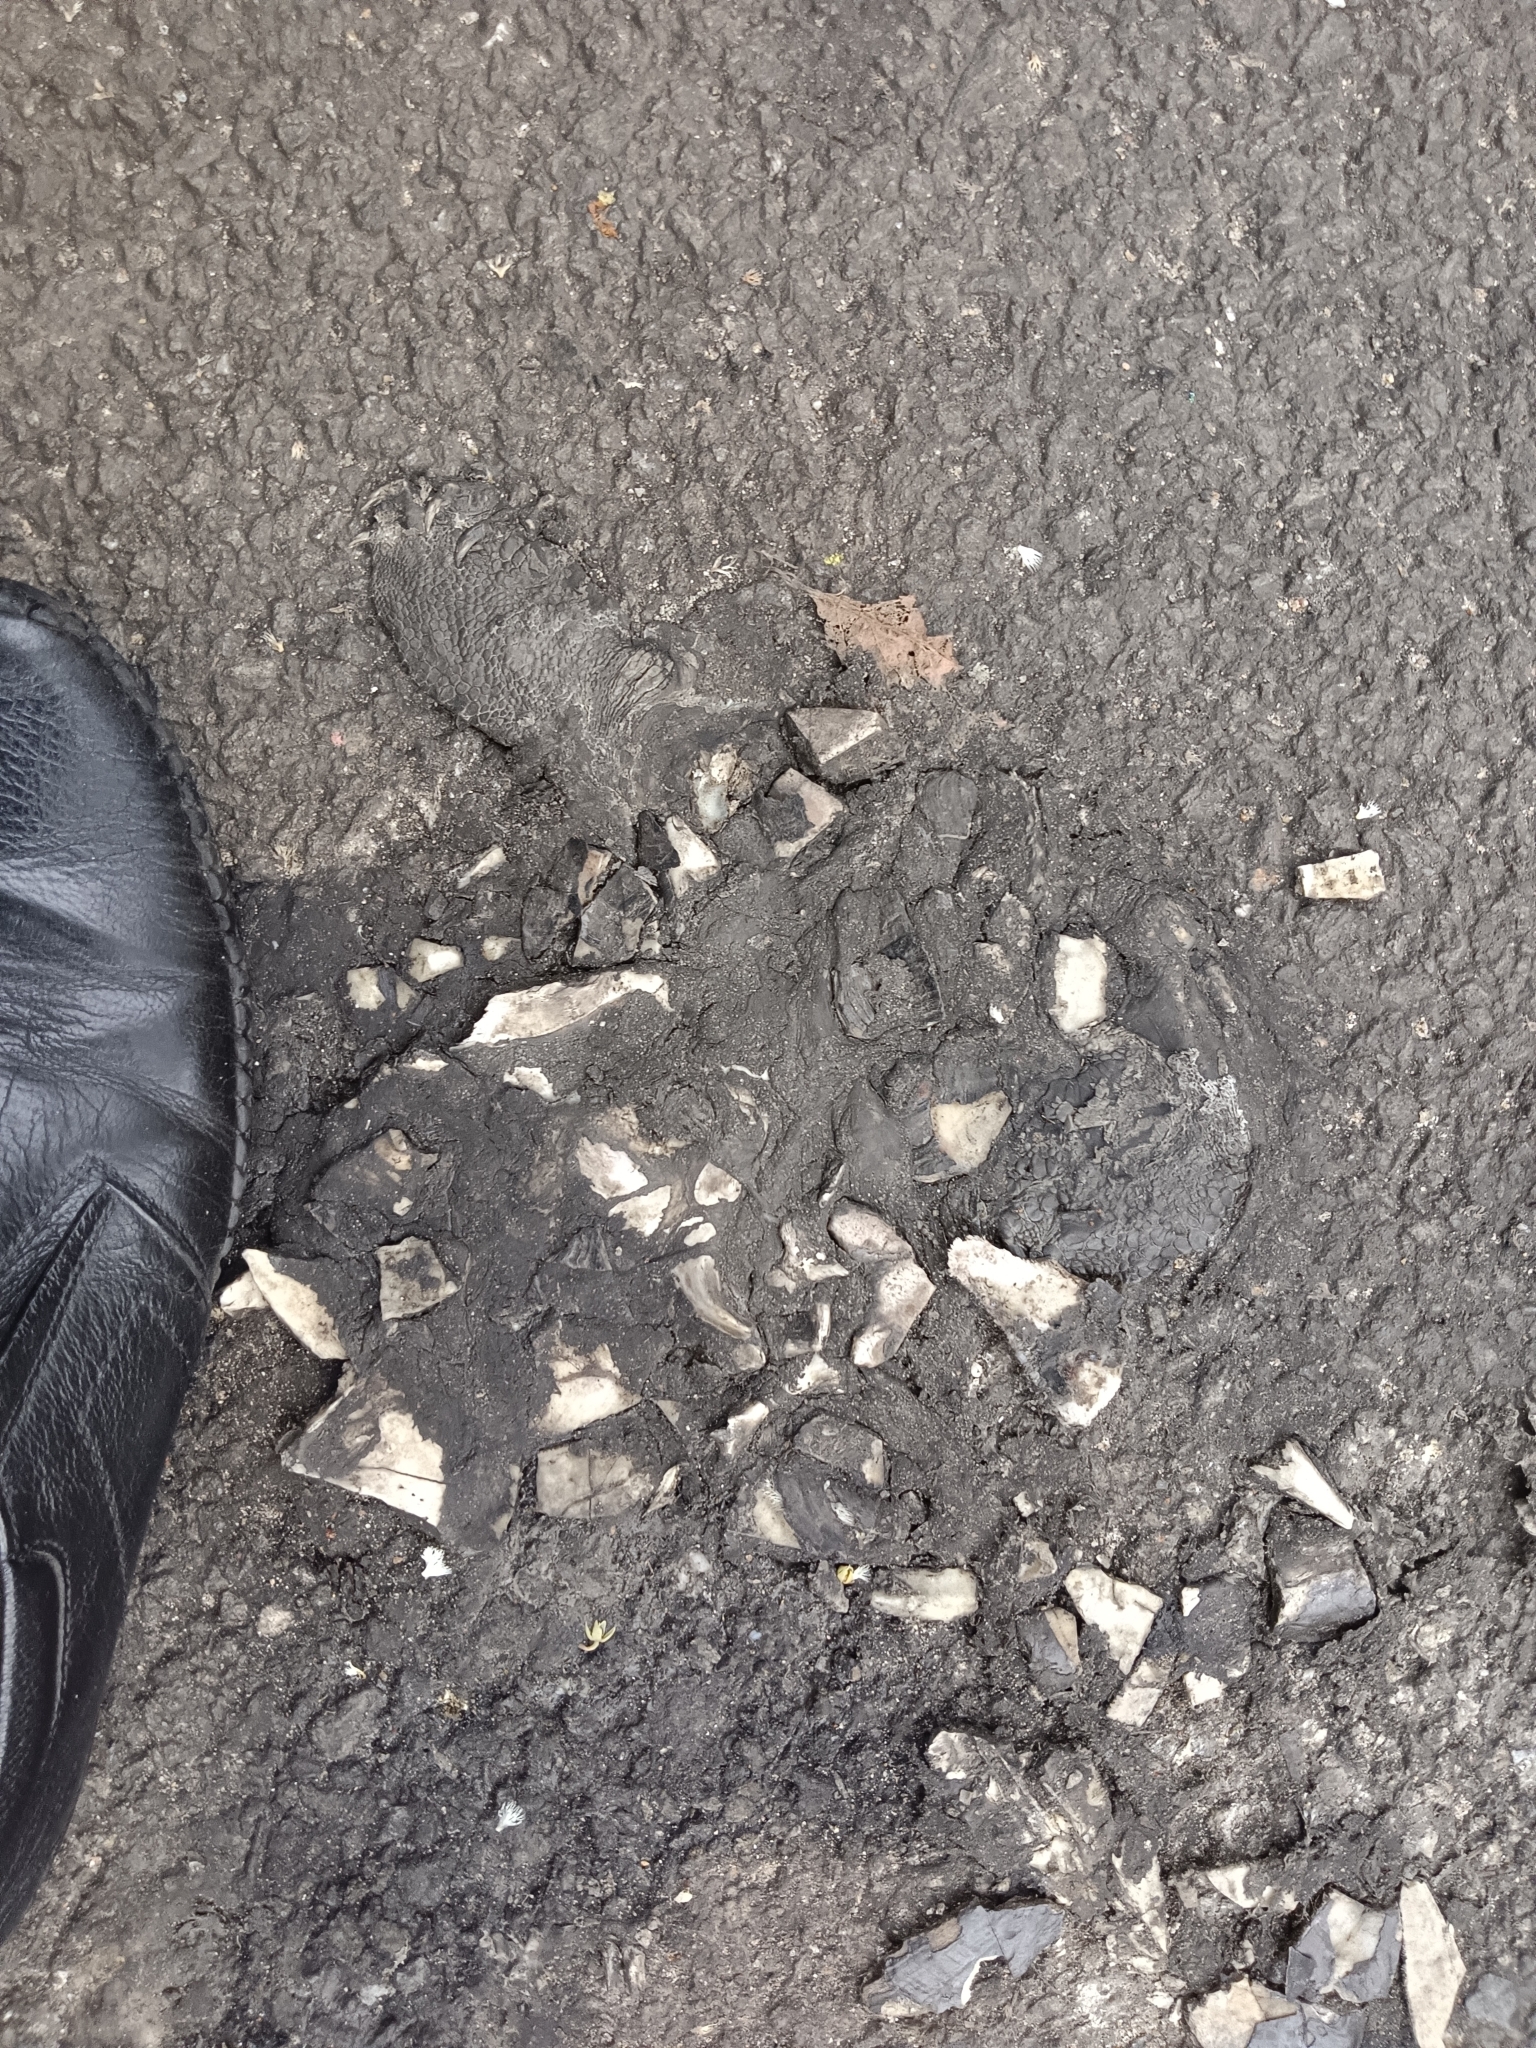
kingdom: Animalia
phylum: Chordata
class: Testudines
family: Geoemydidae
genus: Melanochelys
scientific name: Melanochelys trijuga
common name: Indian black turtle
